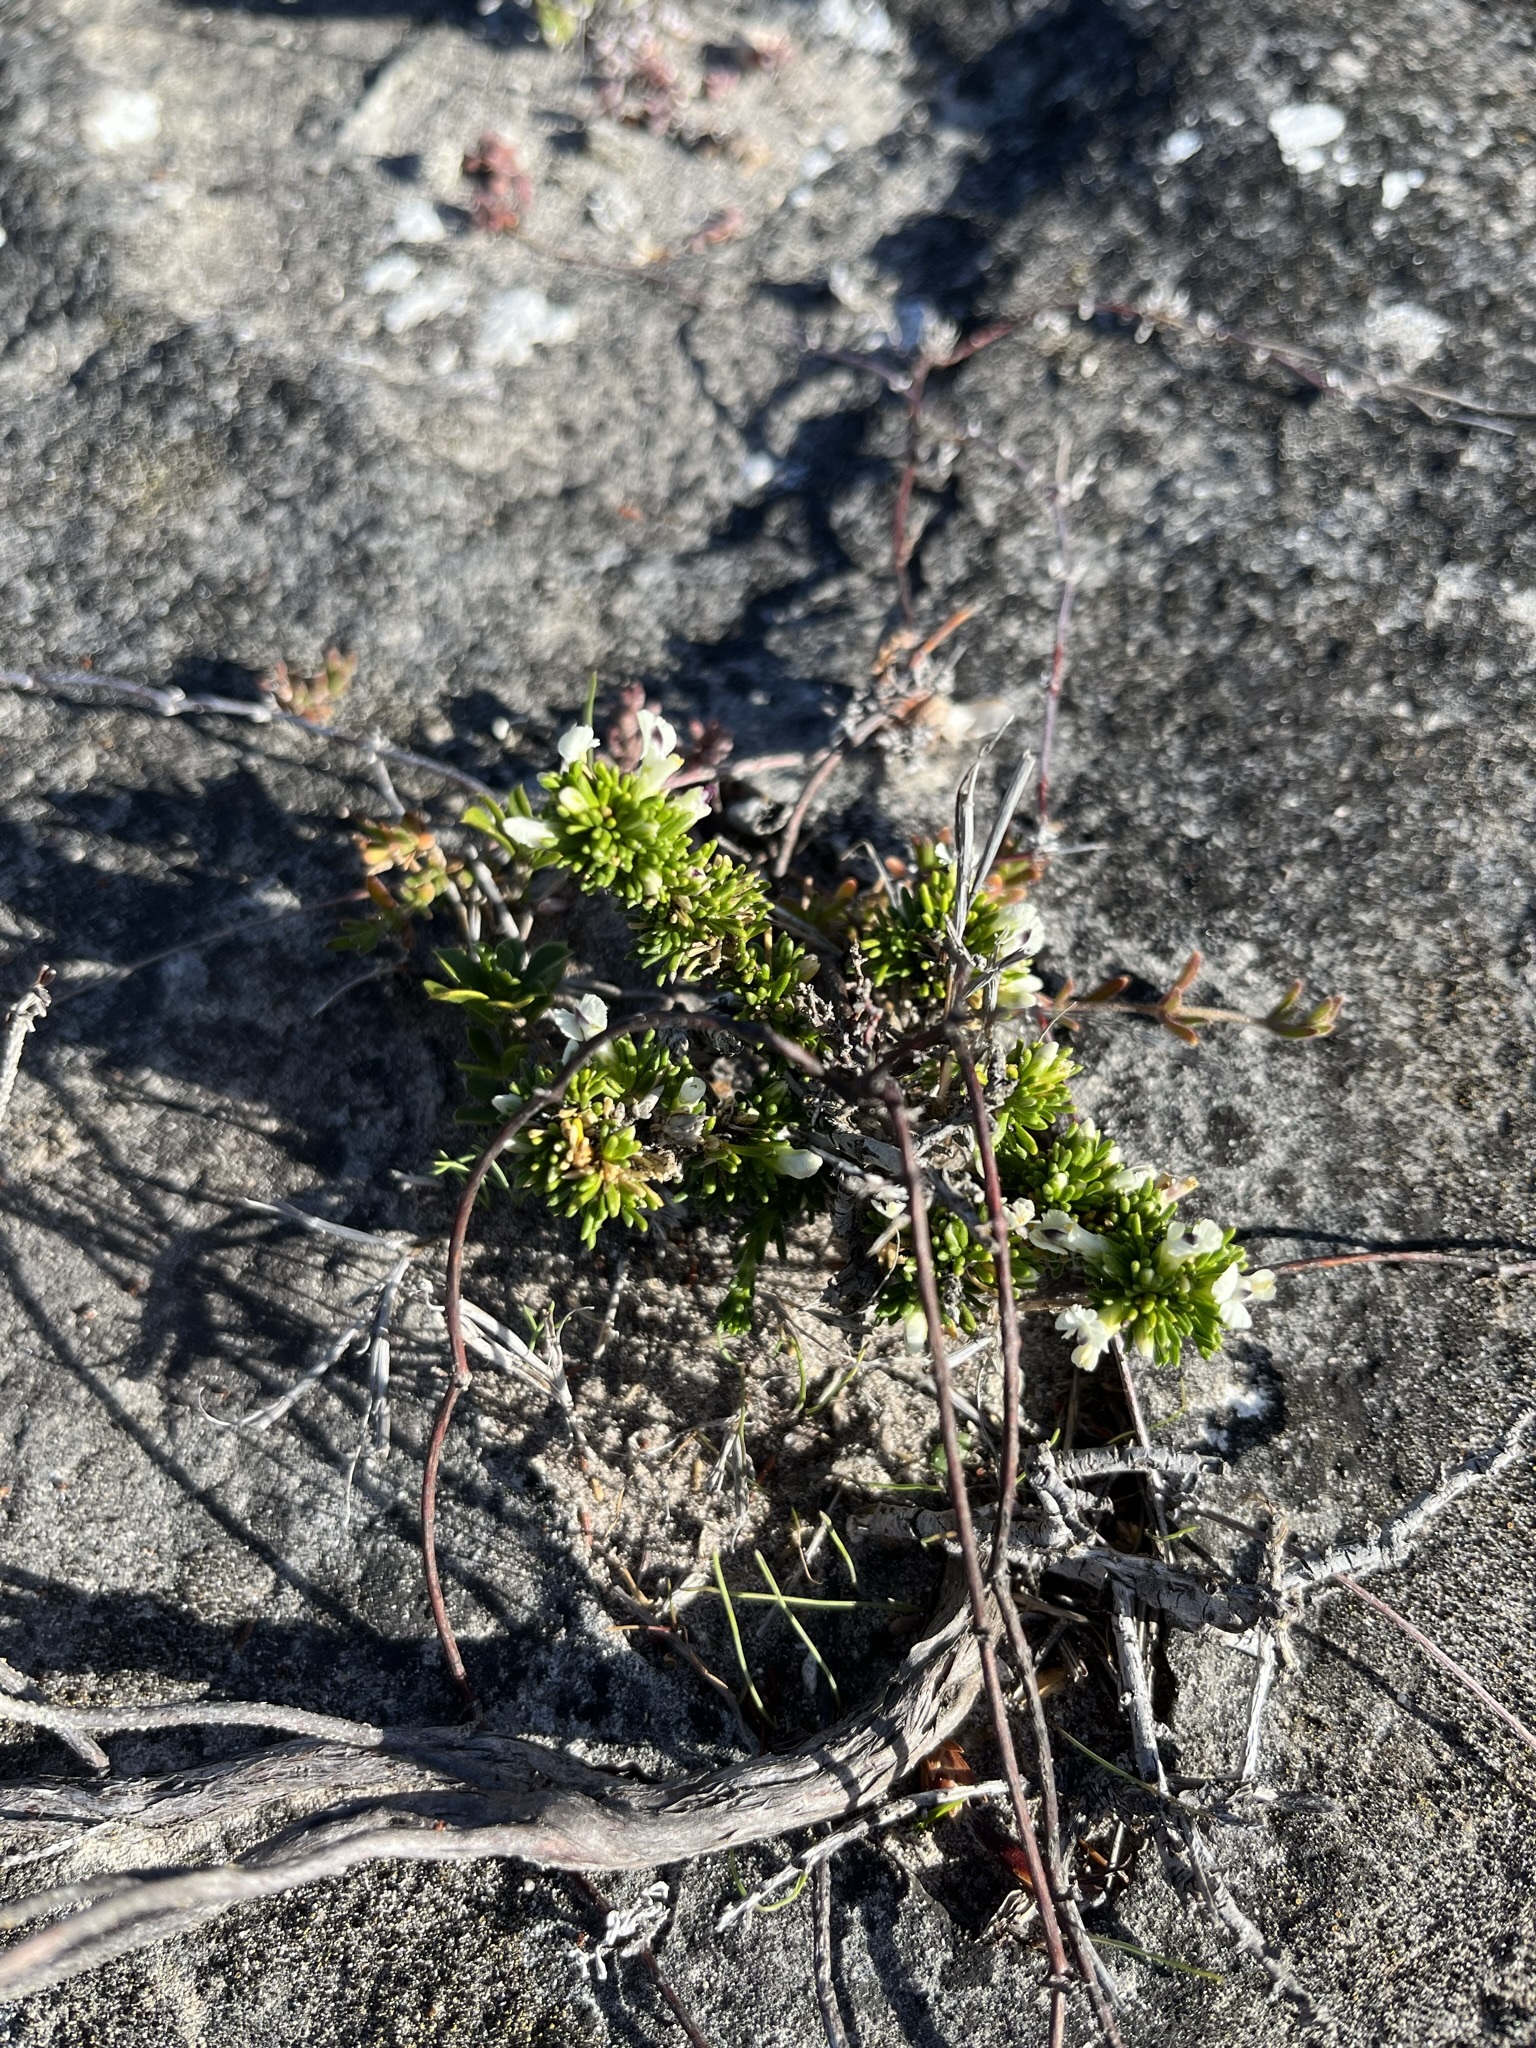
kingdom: Plantae
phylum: Tracheophyta
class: Magnoliopsida
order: Fabales
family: Polygalaceae
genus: Muraltia
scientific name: Muraltia pappeana
